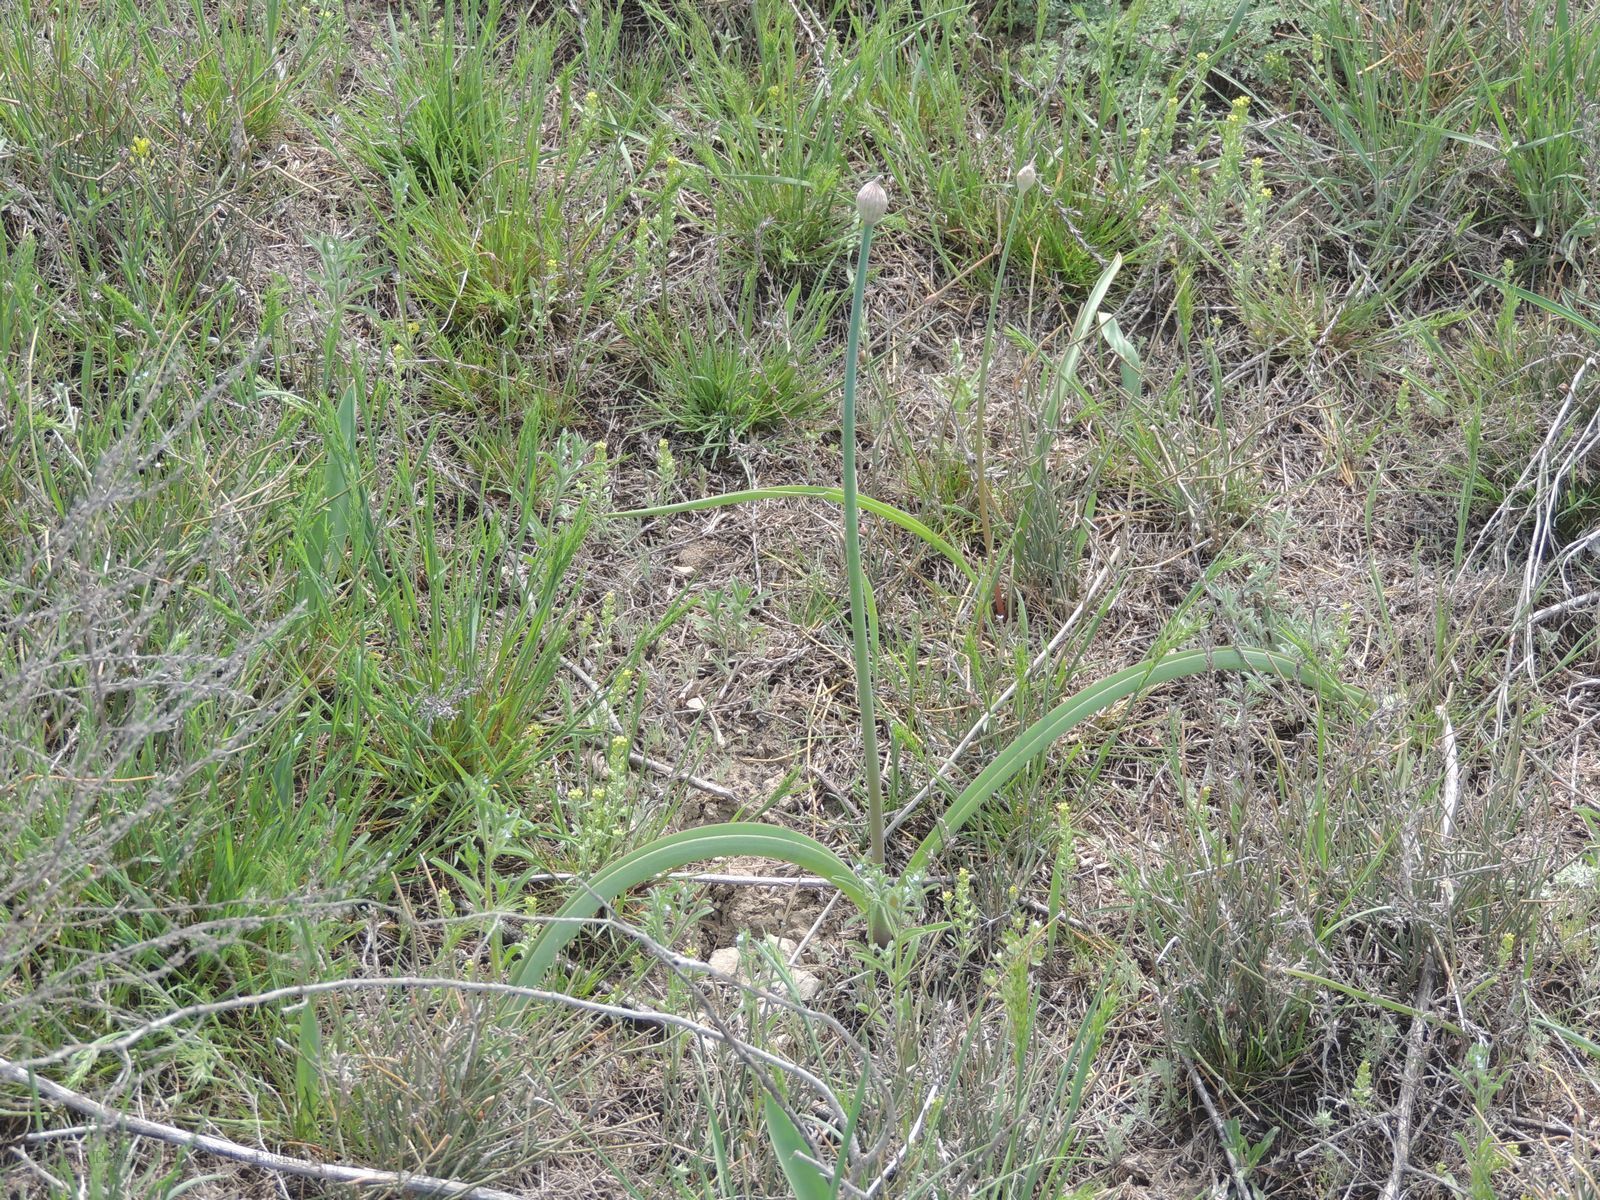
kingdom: Plantae
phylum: Tracheophyta
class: Liliopsida
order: Asparagales
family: Amaryllidaceae
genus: Allium
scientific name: Allium tulipifolium
